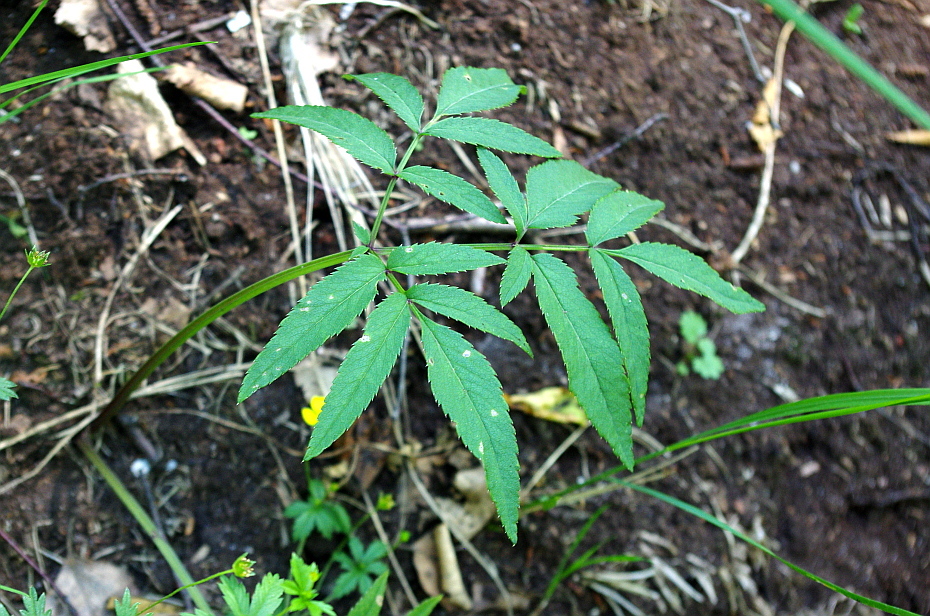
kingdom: Plantae
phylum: Tracheophyta
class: Magnoliopsida
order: Apiales
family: Apiaceae
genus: Angelica
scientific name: Angelica sylvestris
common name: Wild angelica
